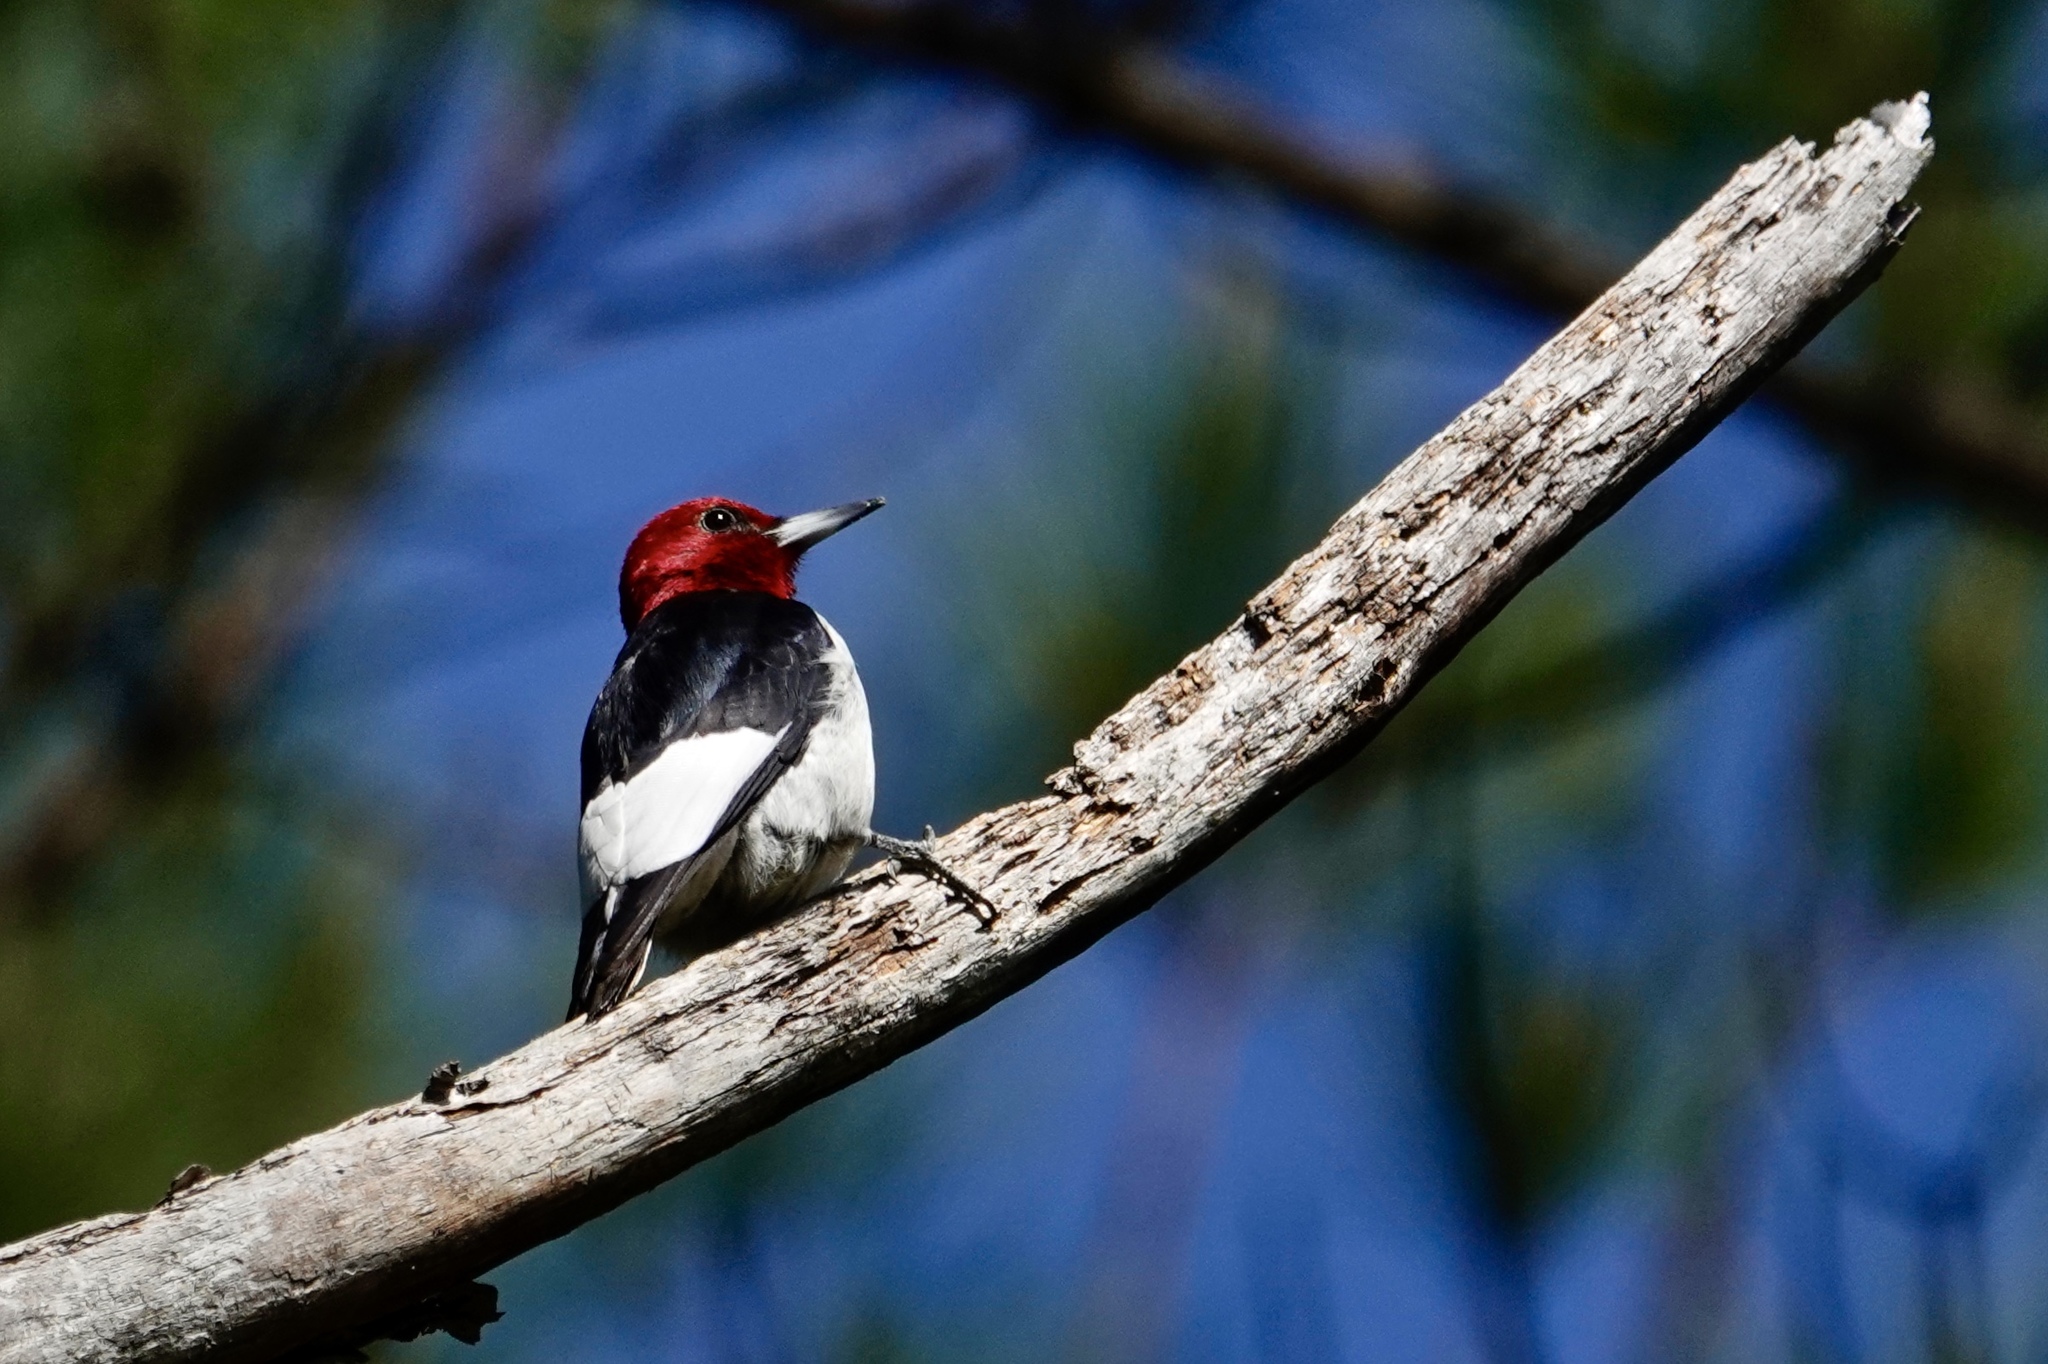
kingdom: Animalia
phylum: Chordata
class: Aves
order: Piciformes
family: Picidae
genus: Melanerpes
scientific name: Melanerpes erythrocephalus
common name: Red-headed woodpecker
